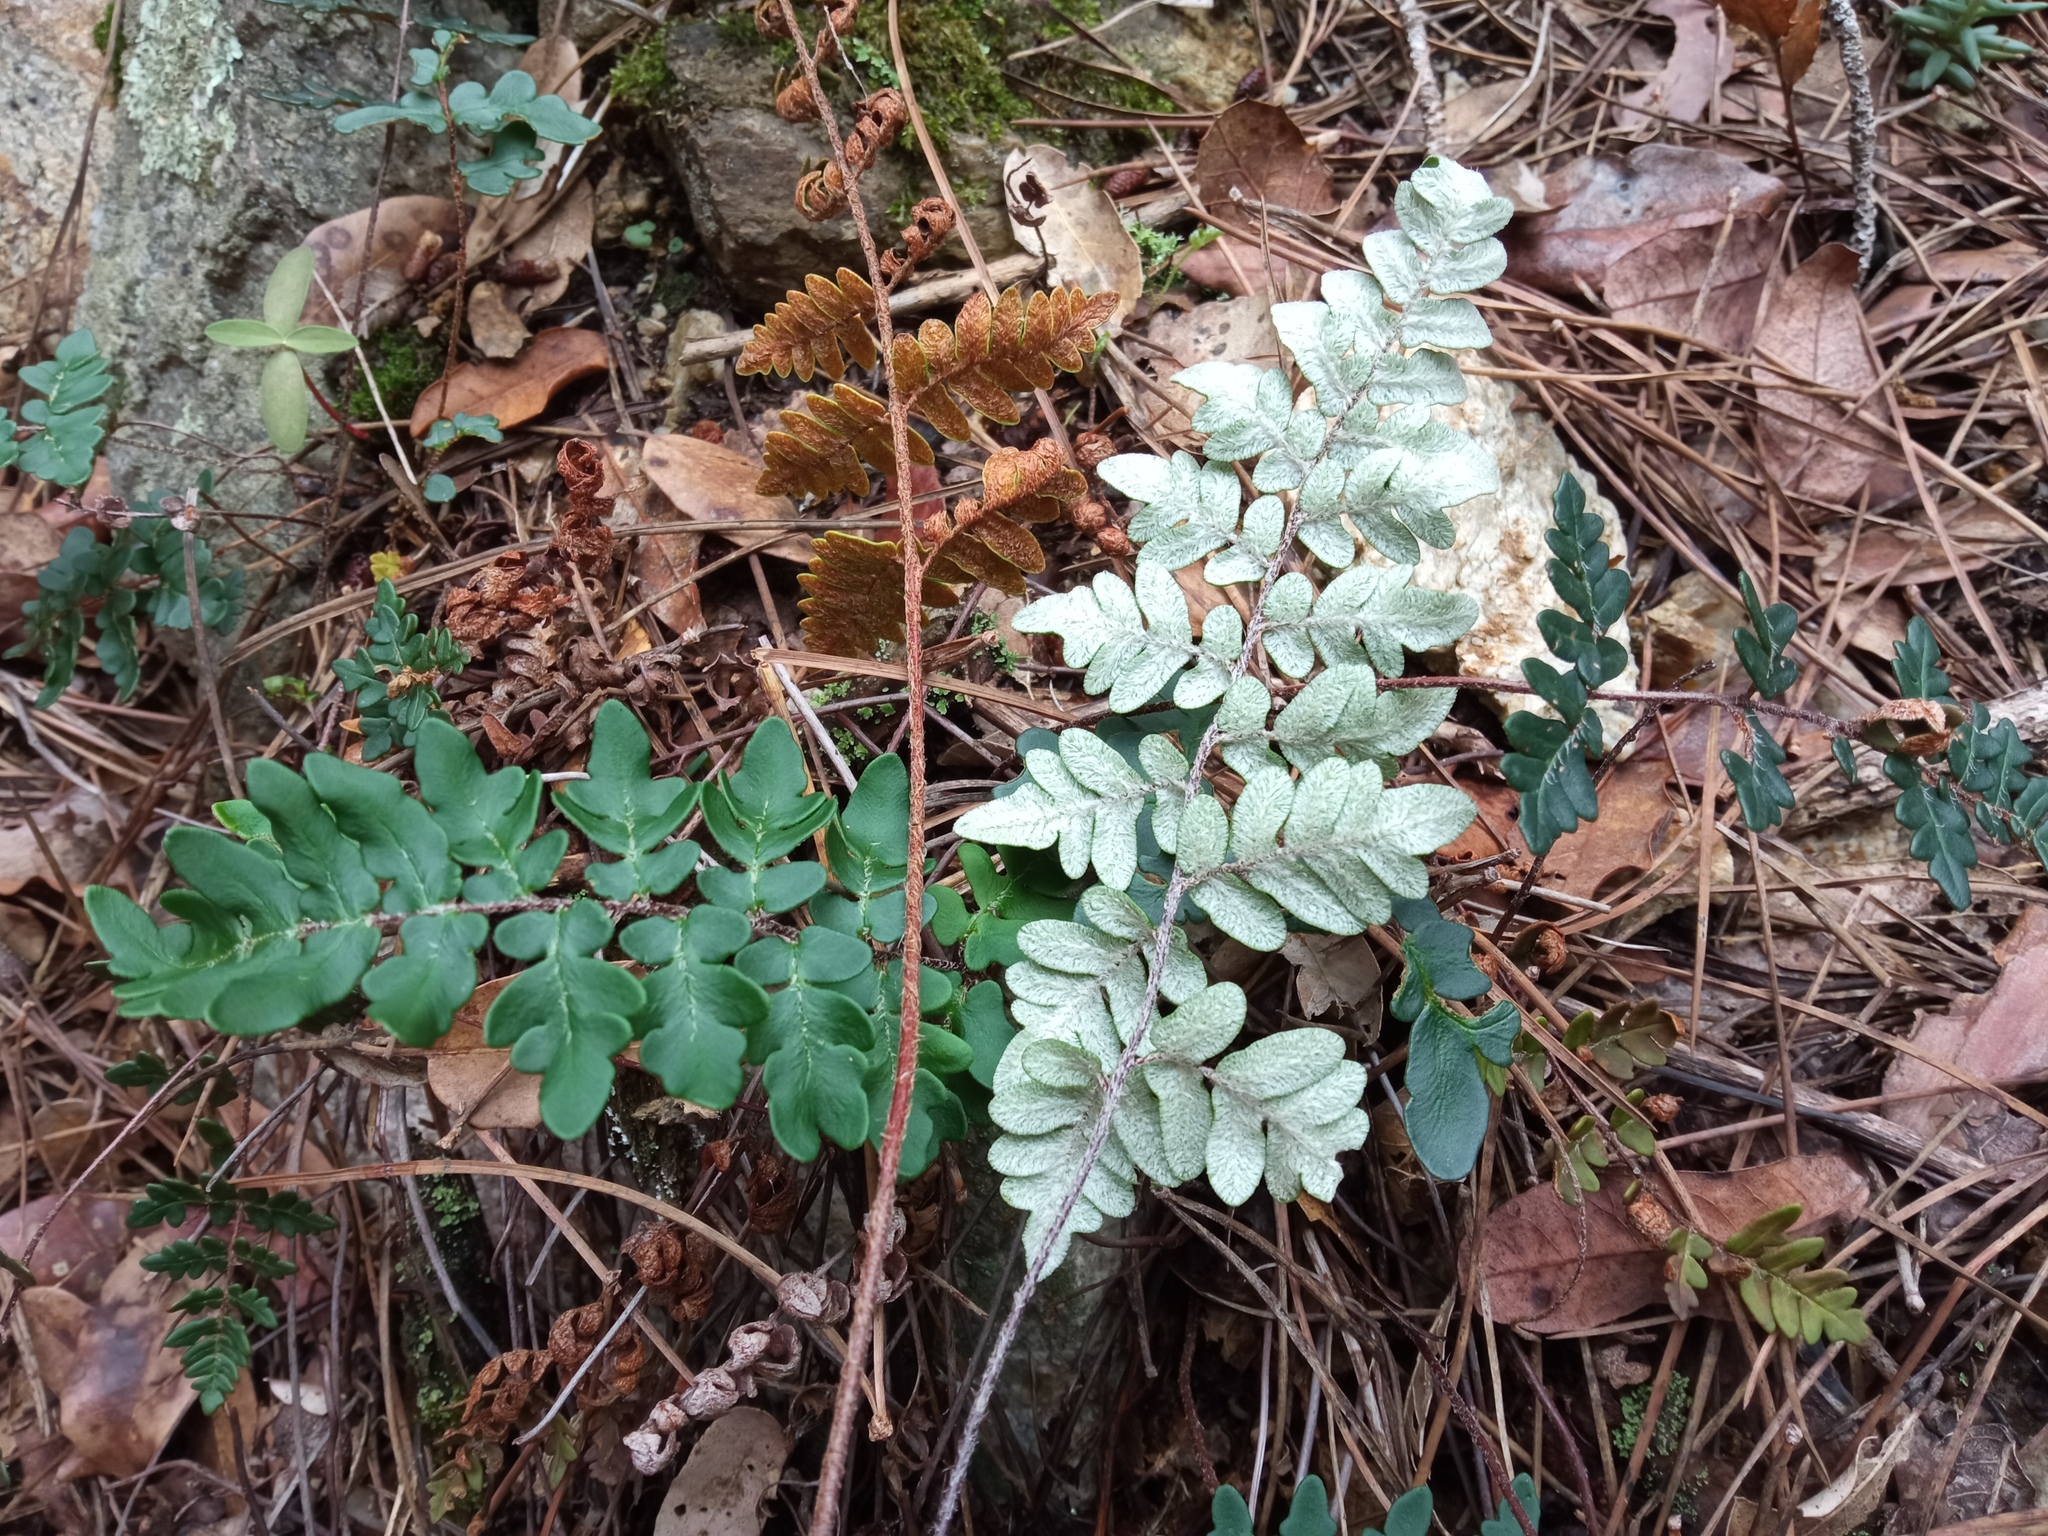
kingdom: Plantae
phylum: Tracheophyta
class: Polypodiopsida
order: Polypodiales
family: Pteridaceae
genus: Paragymnopteris
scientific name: Paragymnopteris marantae
